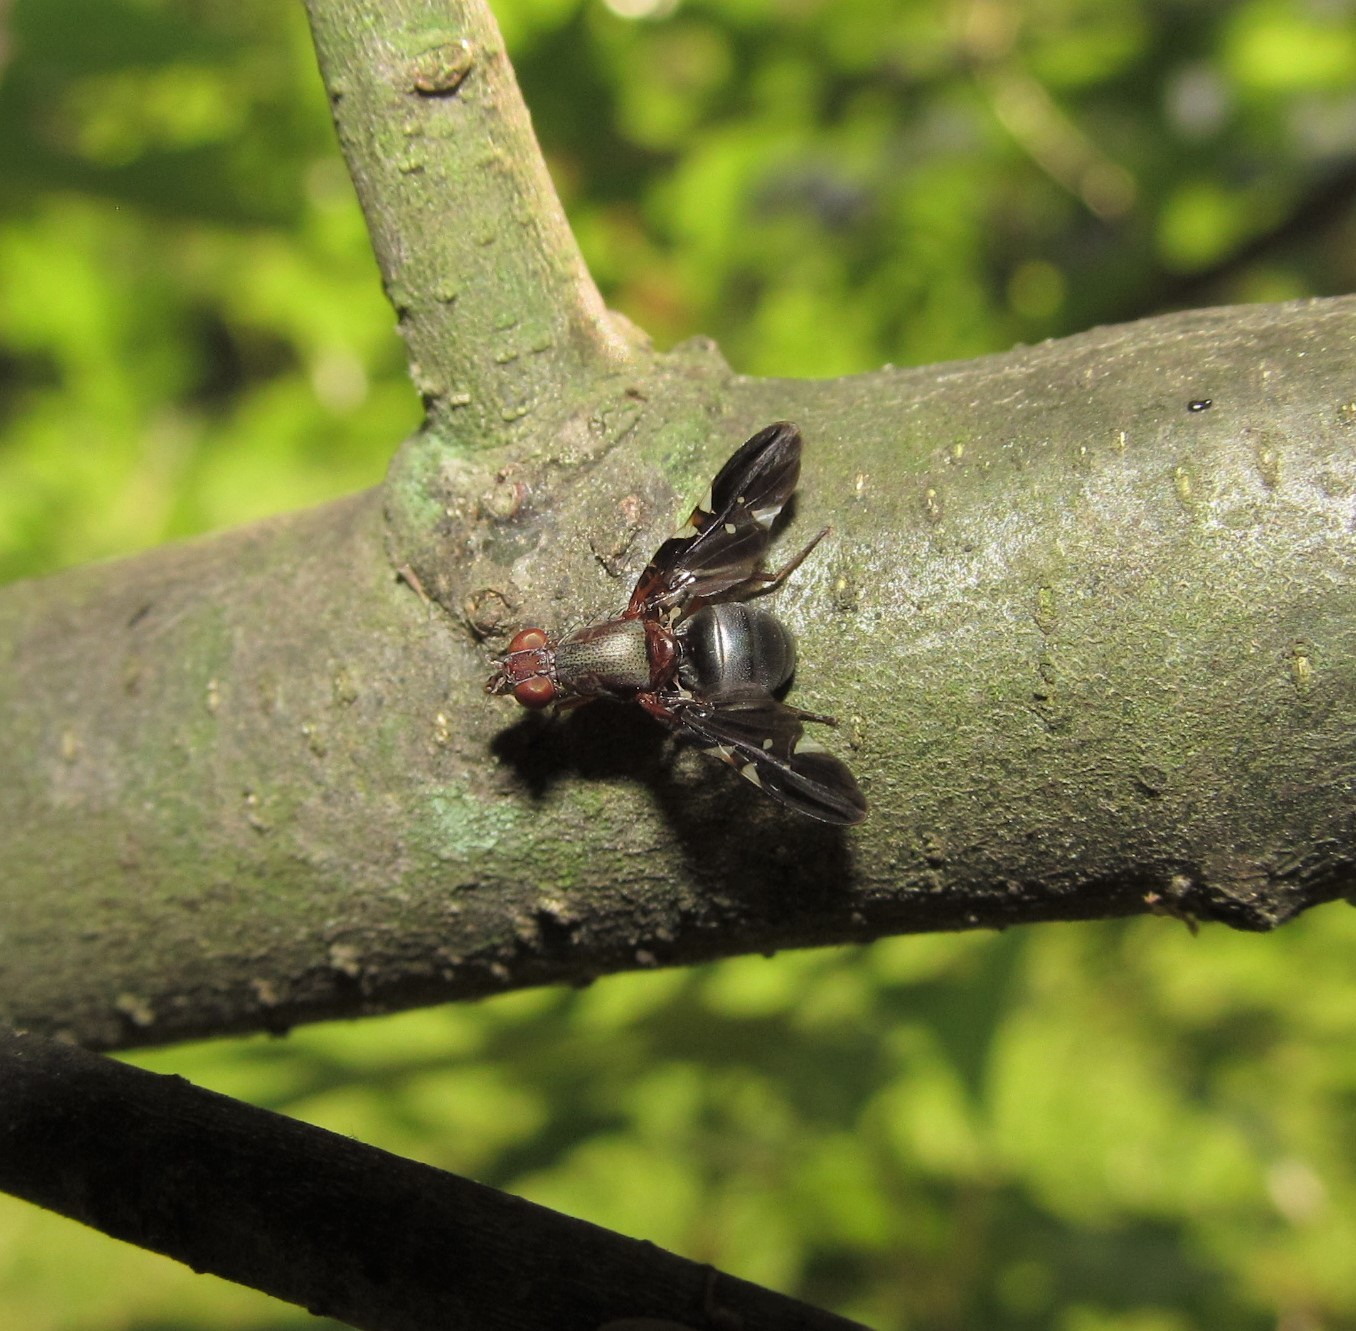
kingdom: Animalia
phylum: Arthropoda
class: Insecta
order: Diptera
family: Ulidiidae
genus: Delphinia
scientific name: Delphinia picta
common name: Common picture-winged fly
